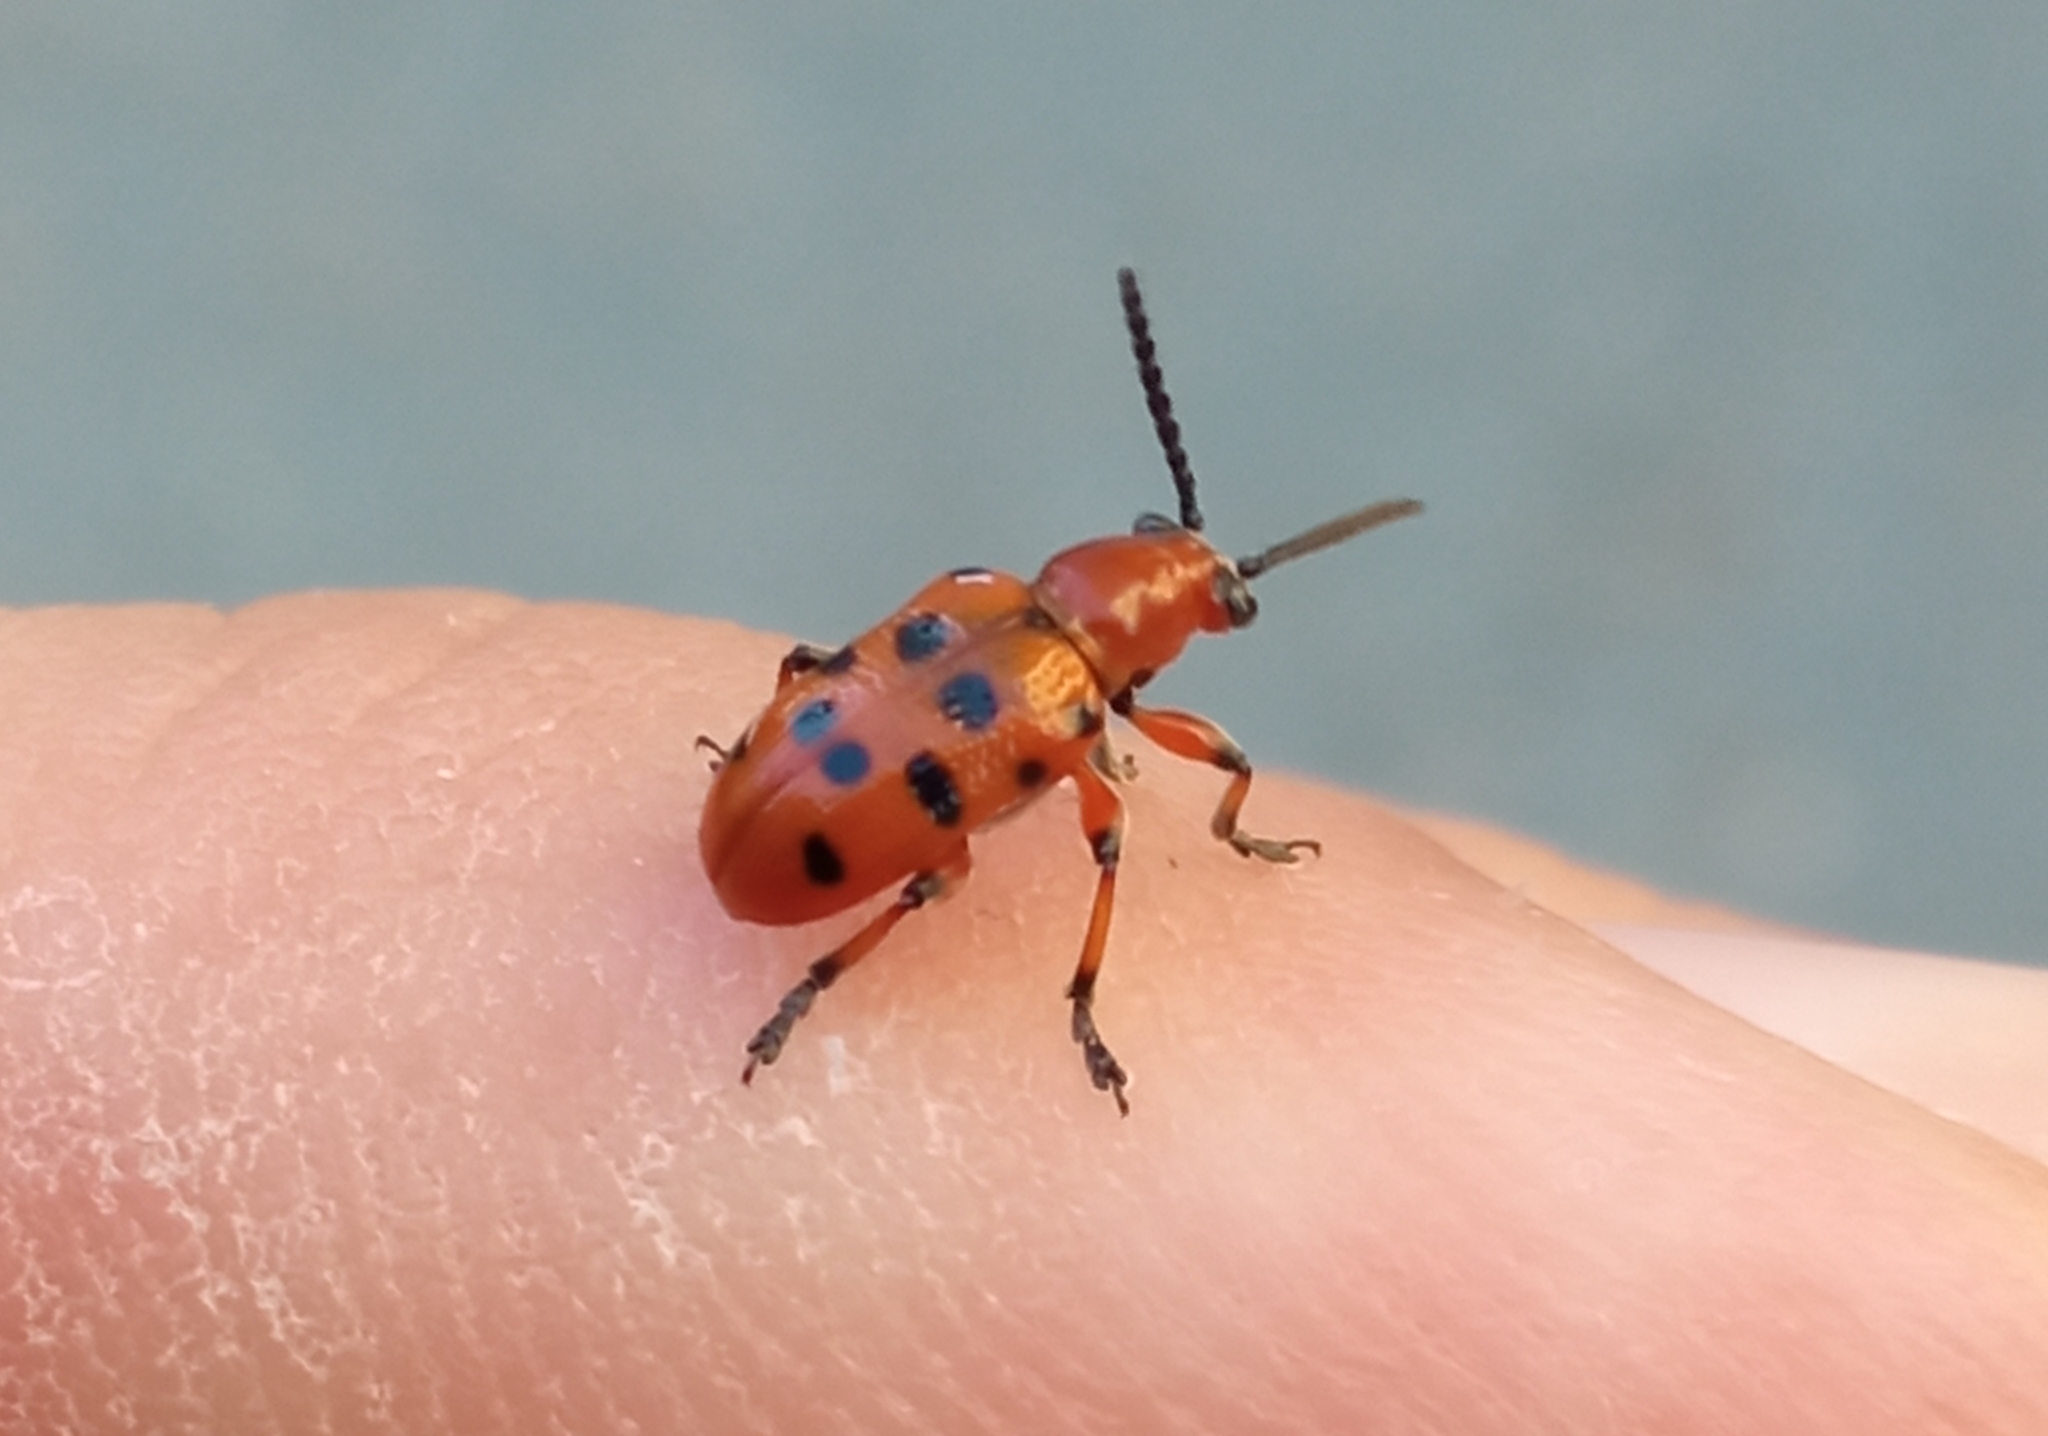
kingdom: Animalia
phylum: Arthropoda
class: Insecta
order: Coleoptera
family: Chrysomelidae
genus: Crioceris
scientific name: Crioceris duodecimpunctata
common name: Twelve-spotted asparagus beetle
